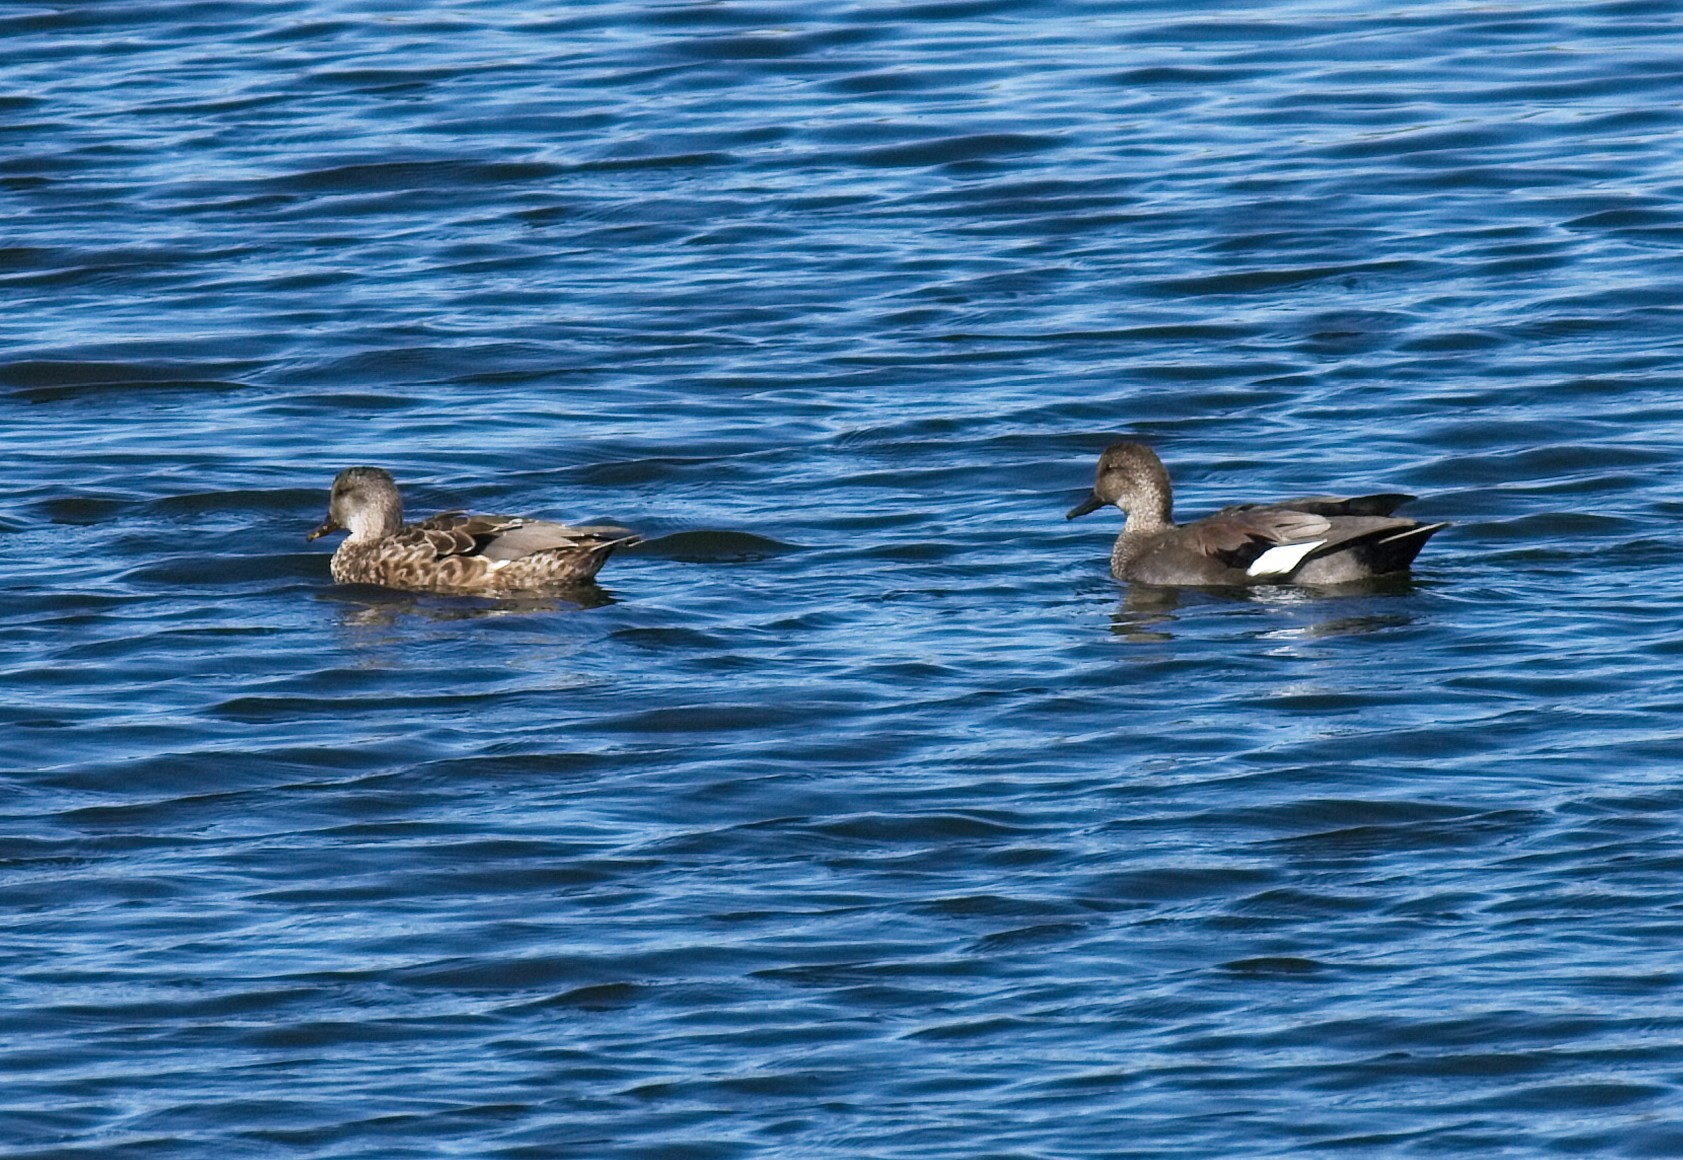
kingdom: Animalia
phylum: Chordata
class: Aves
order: Anseriformes
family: Anatidae
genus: Mareca
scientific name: Mareca strepera
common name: Gadwall
